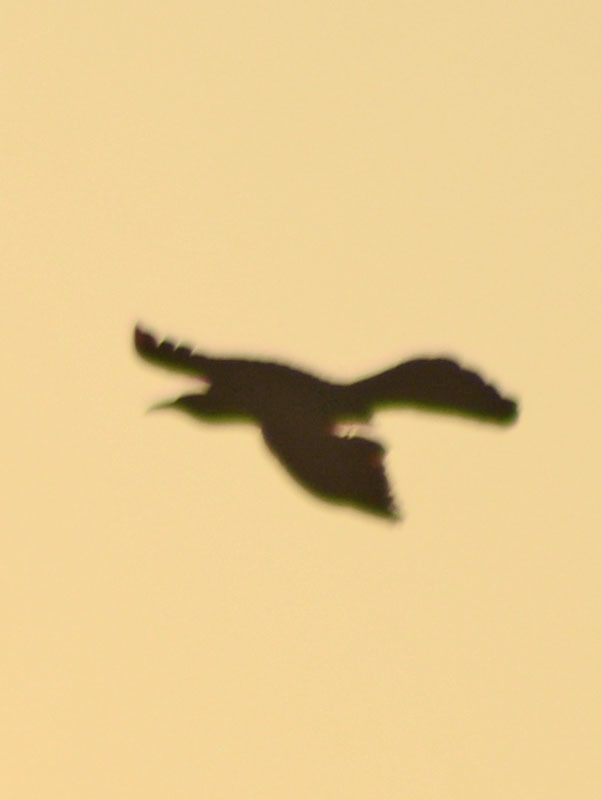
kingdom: Animalia
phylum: Chordata
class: Aves
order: Passeriformes
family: Icteridae
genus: Quiscalus
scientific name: Quiscalus mexicanus
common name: Great-tailed grackle
